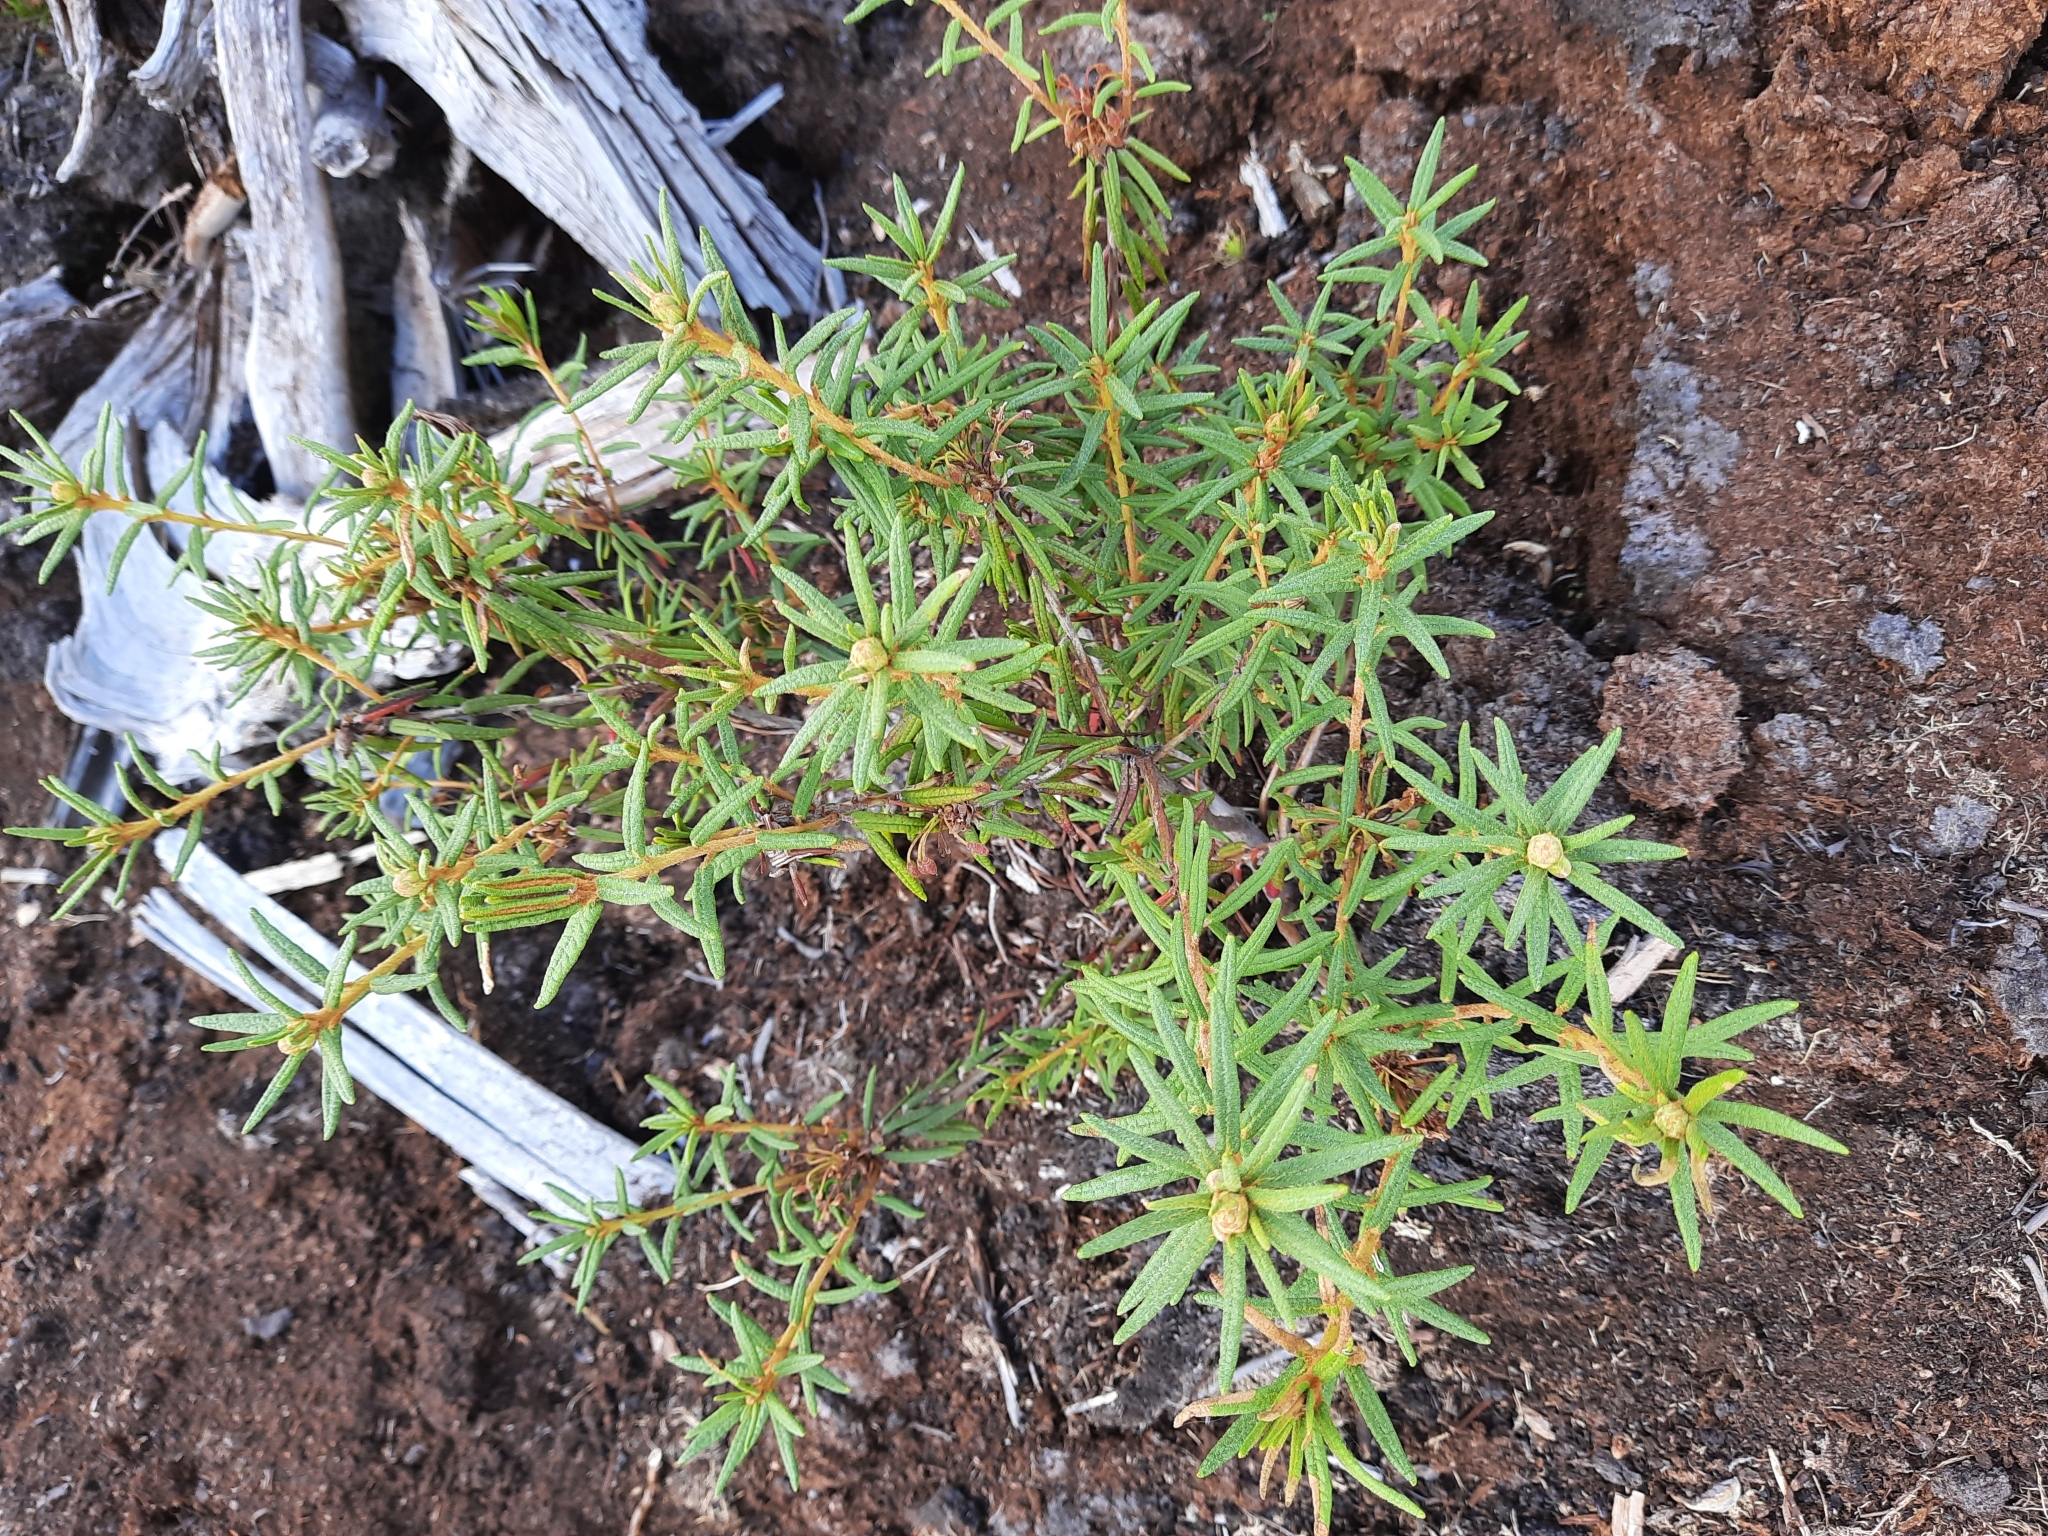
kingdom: Plantae
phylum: Tracheophyta
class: Magnoliopsida
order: Ericales
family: Ericaceae
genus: Rhododendron
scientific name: Rhododendron tomentosum
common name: Marsh labrador tea
